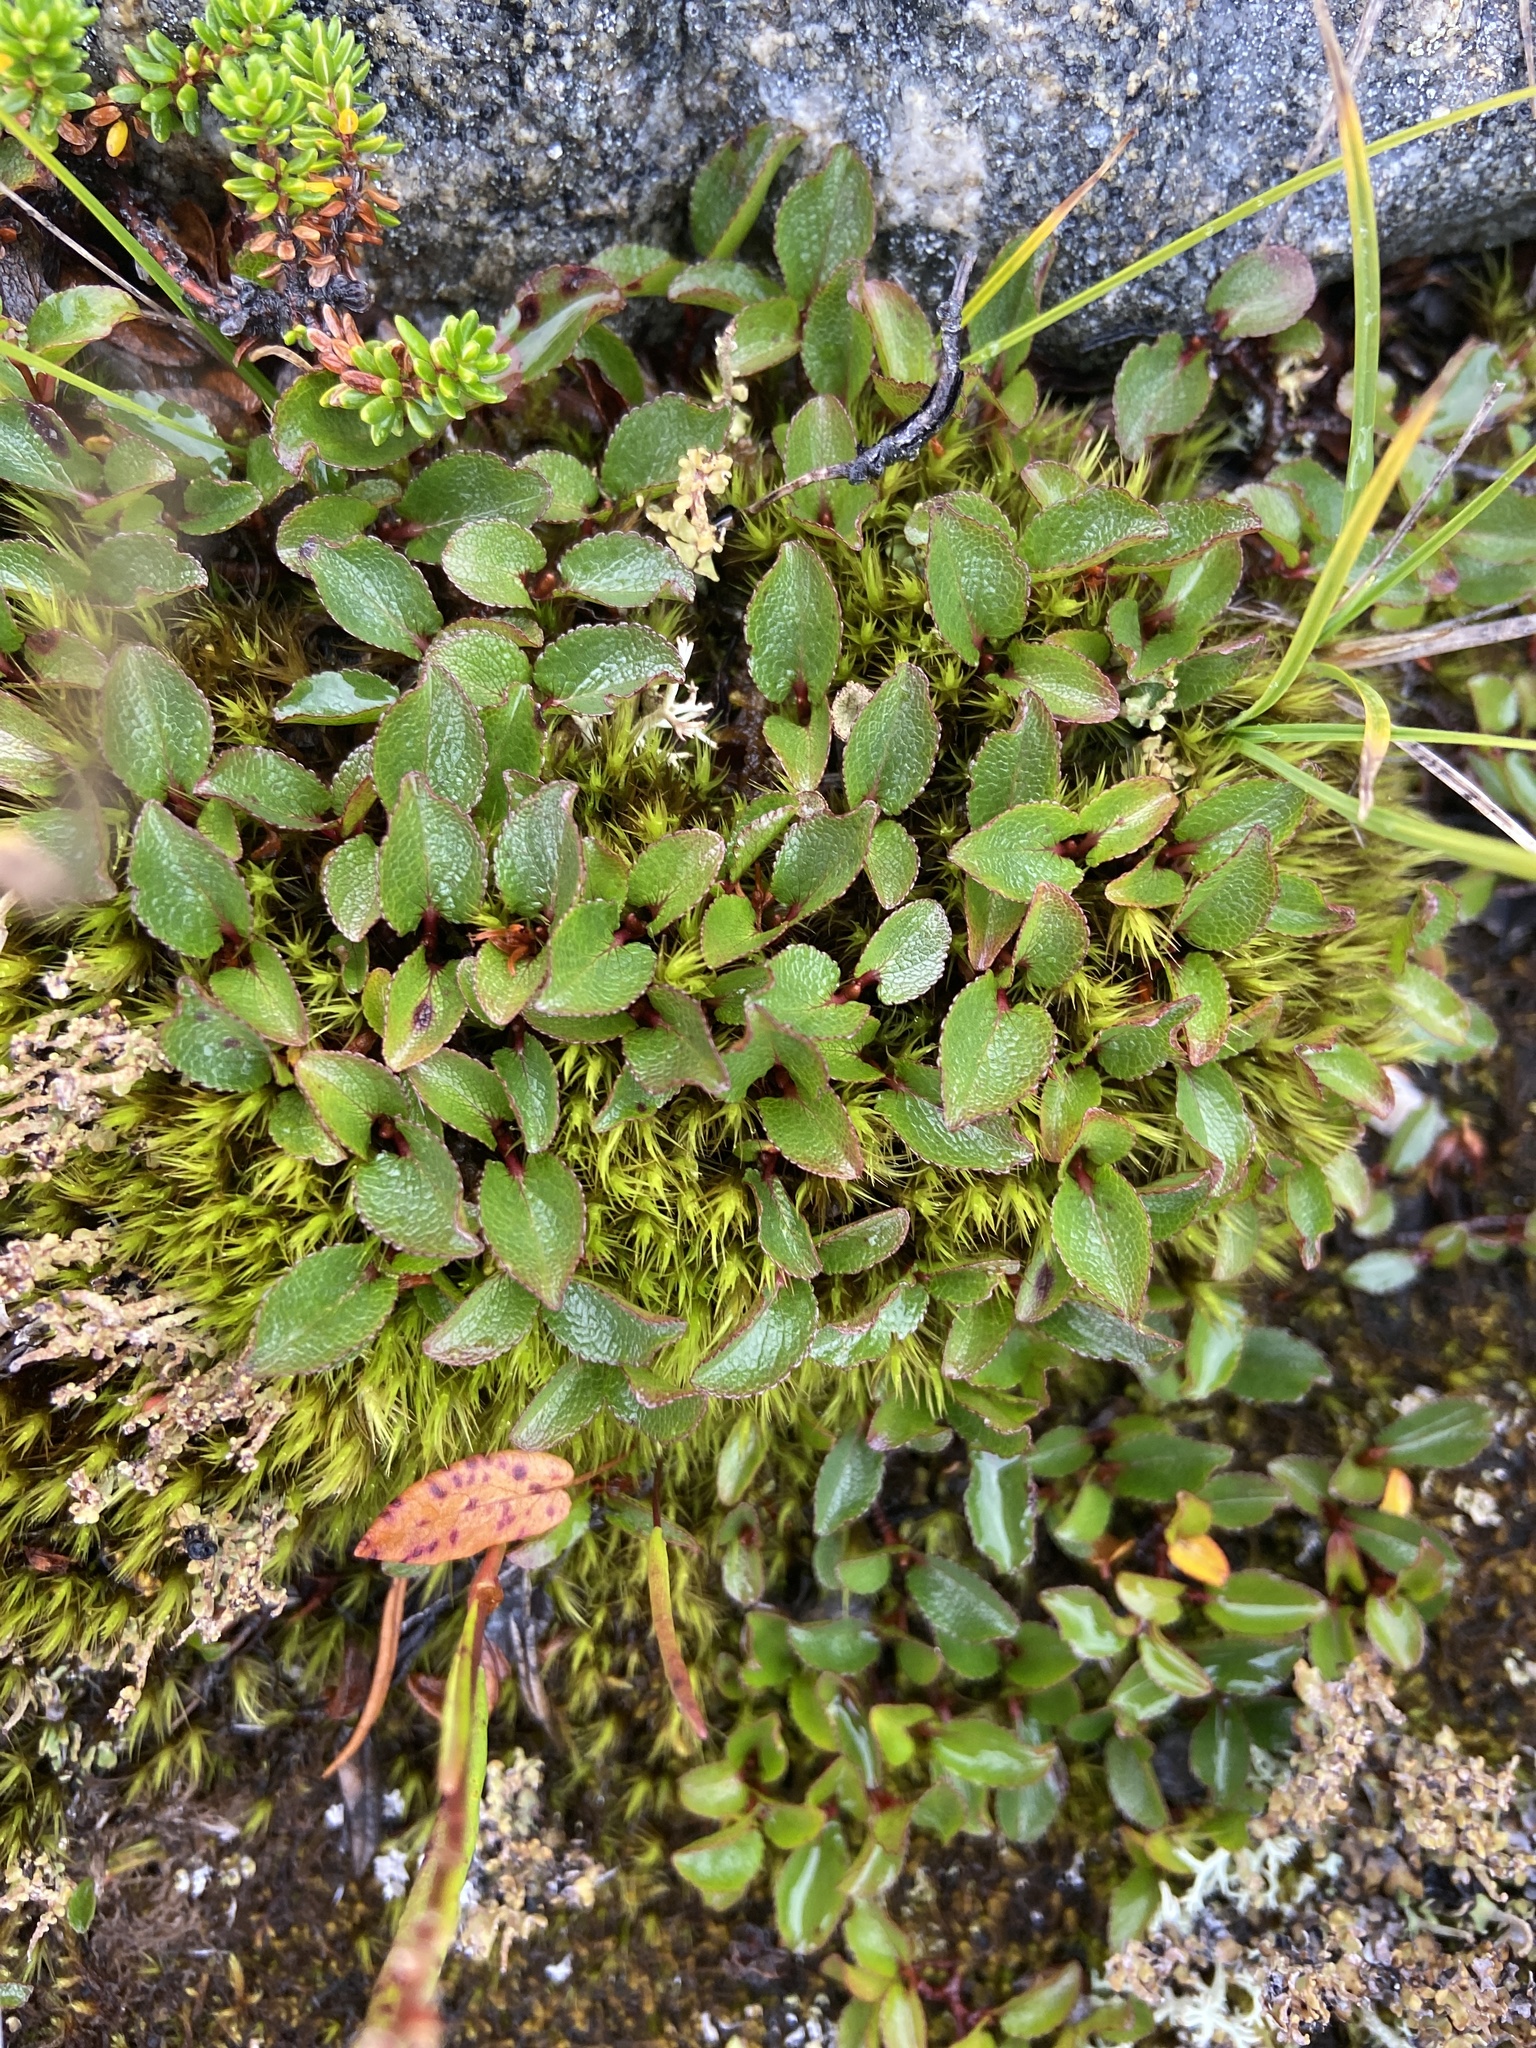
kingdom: Plantae
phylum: Tracheophyta
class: Magnoliopsida
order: Malpighiales
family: Salicaceae
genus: Salix
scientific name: Salix herbacea
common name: Dwarf willow
